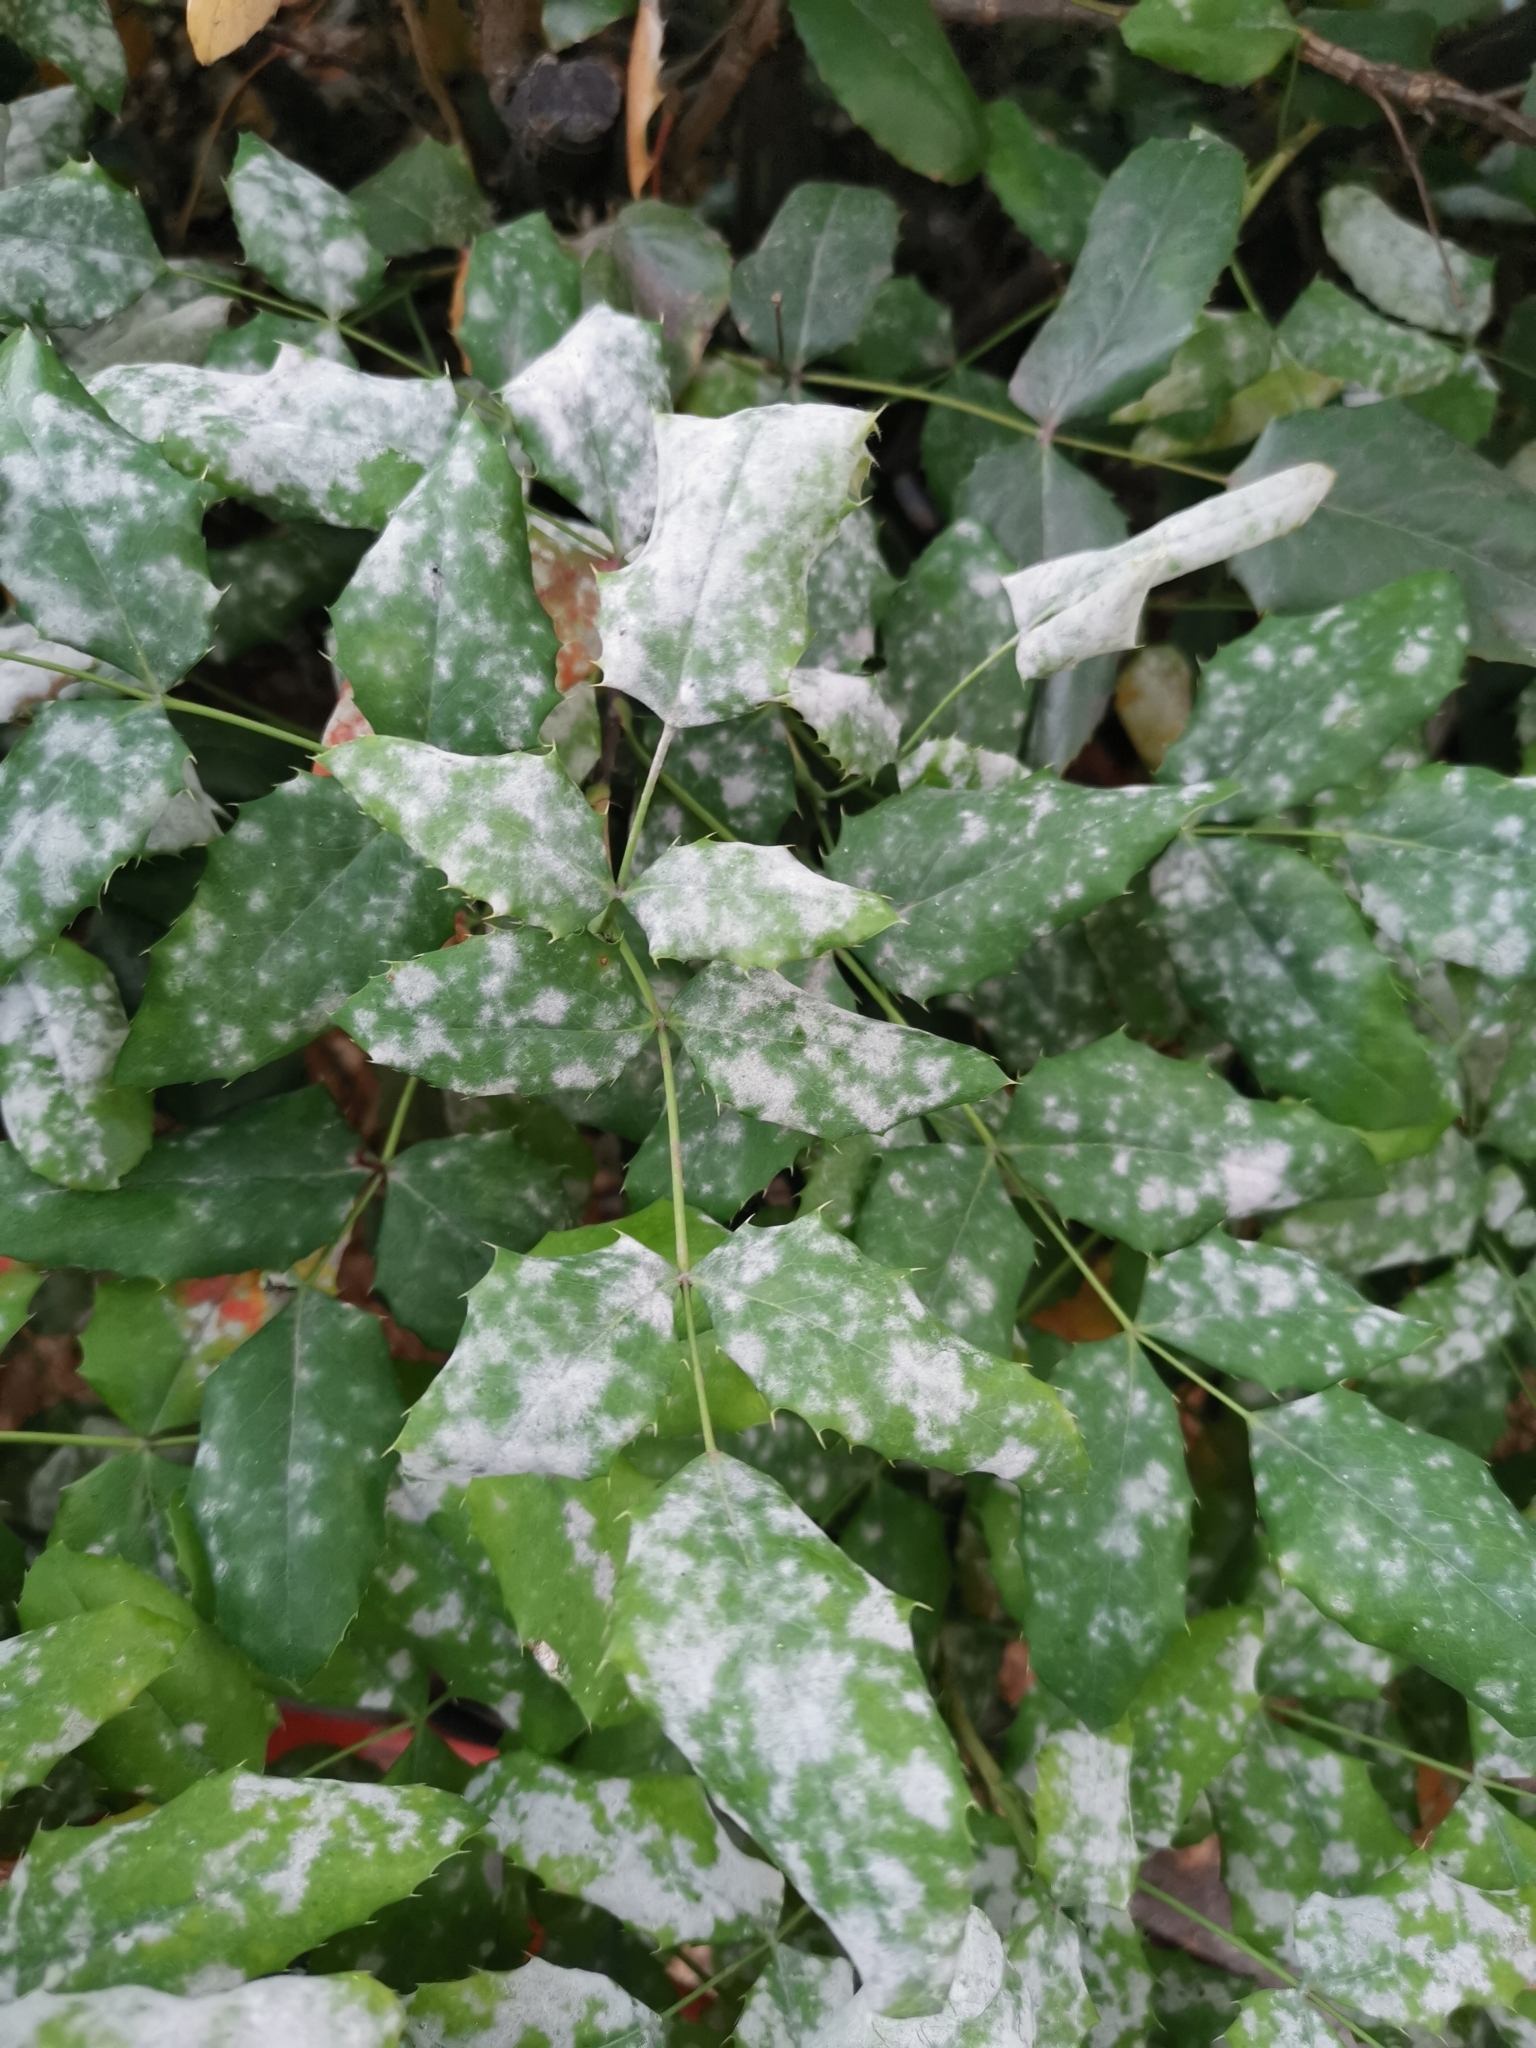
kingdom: Fungi
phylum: Ascomycota
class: Leotiomycetes
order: Helotiales
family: Erysiphaceae
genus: Erysiphe
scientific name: Erysiphe berberidis
